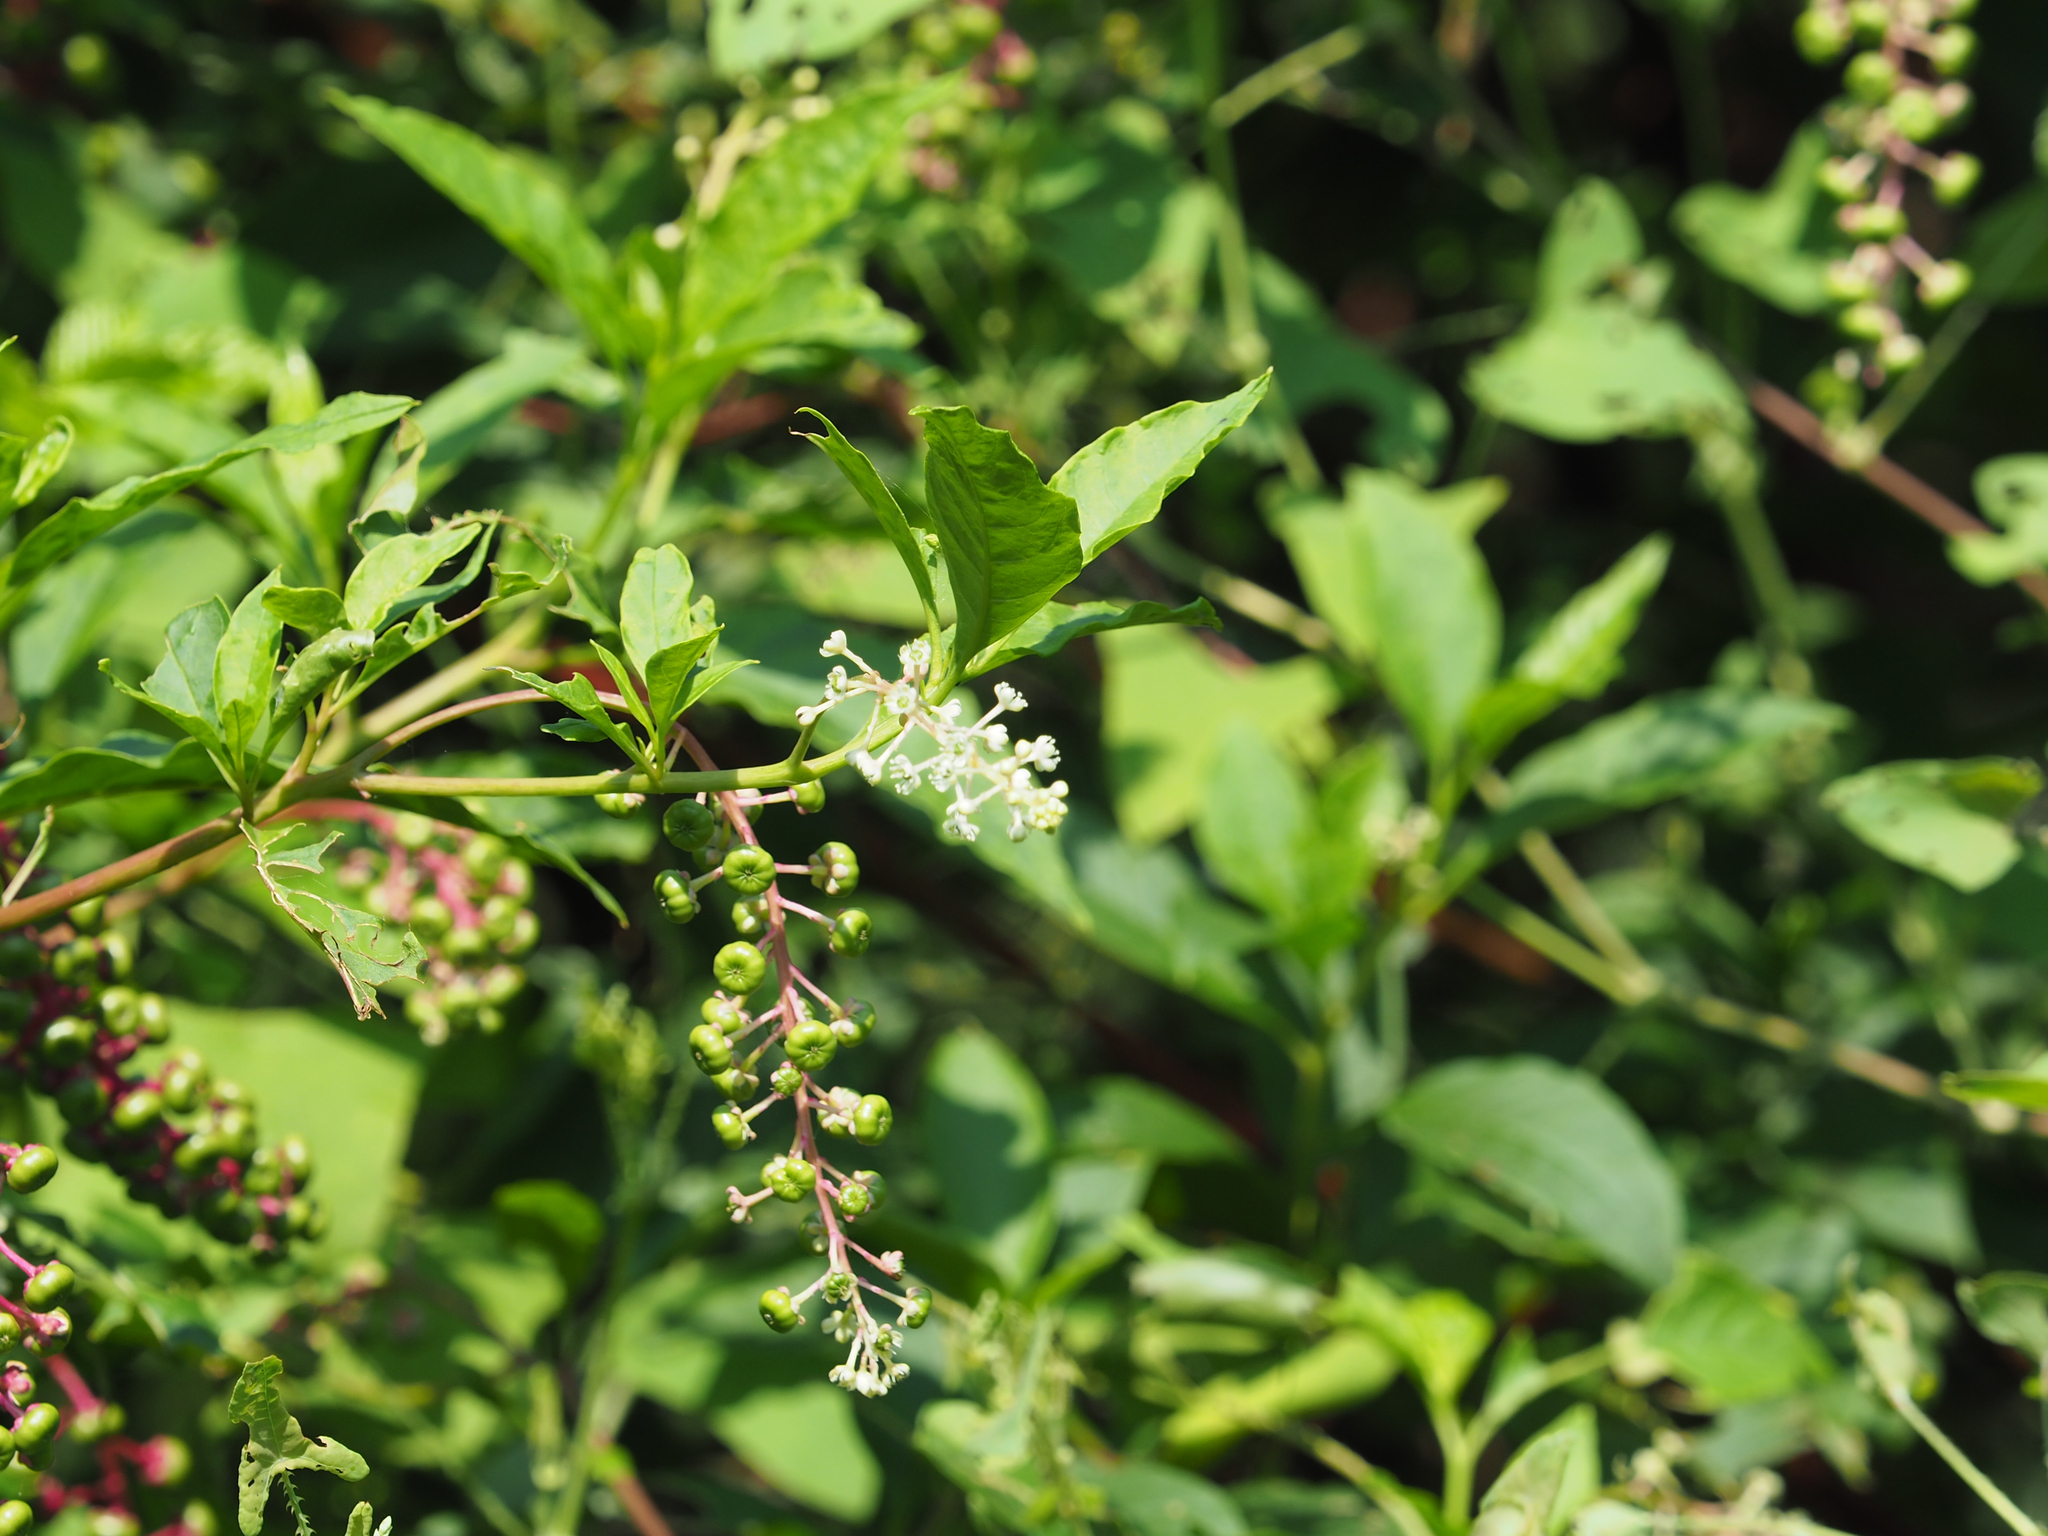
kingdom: Plantae
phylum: Tracheophyta
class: Magnoliopsida
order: Caryophyllales
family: Phytolaccaceae
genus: Phytolacca
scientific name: Phytolacca americana
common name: American pokeweed
